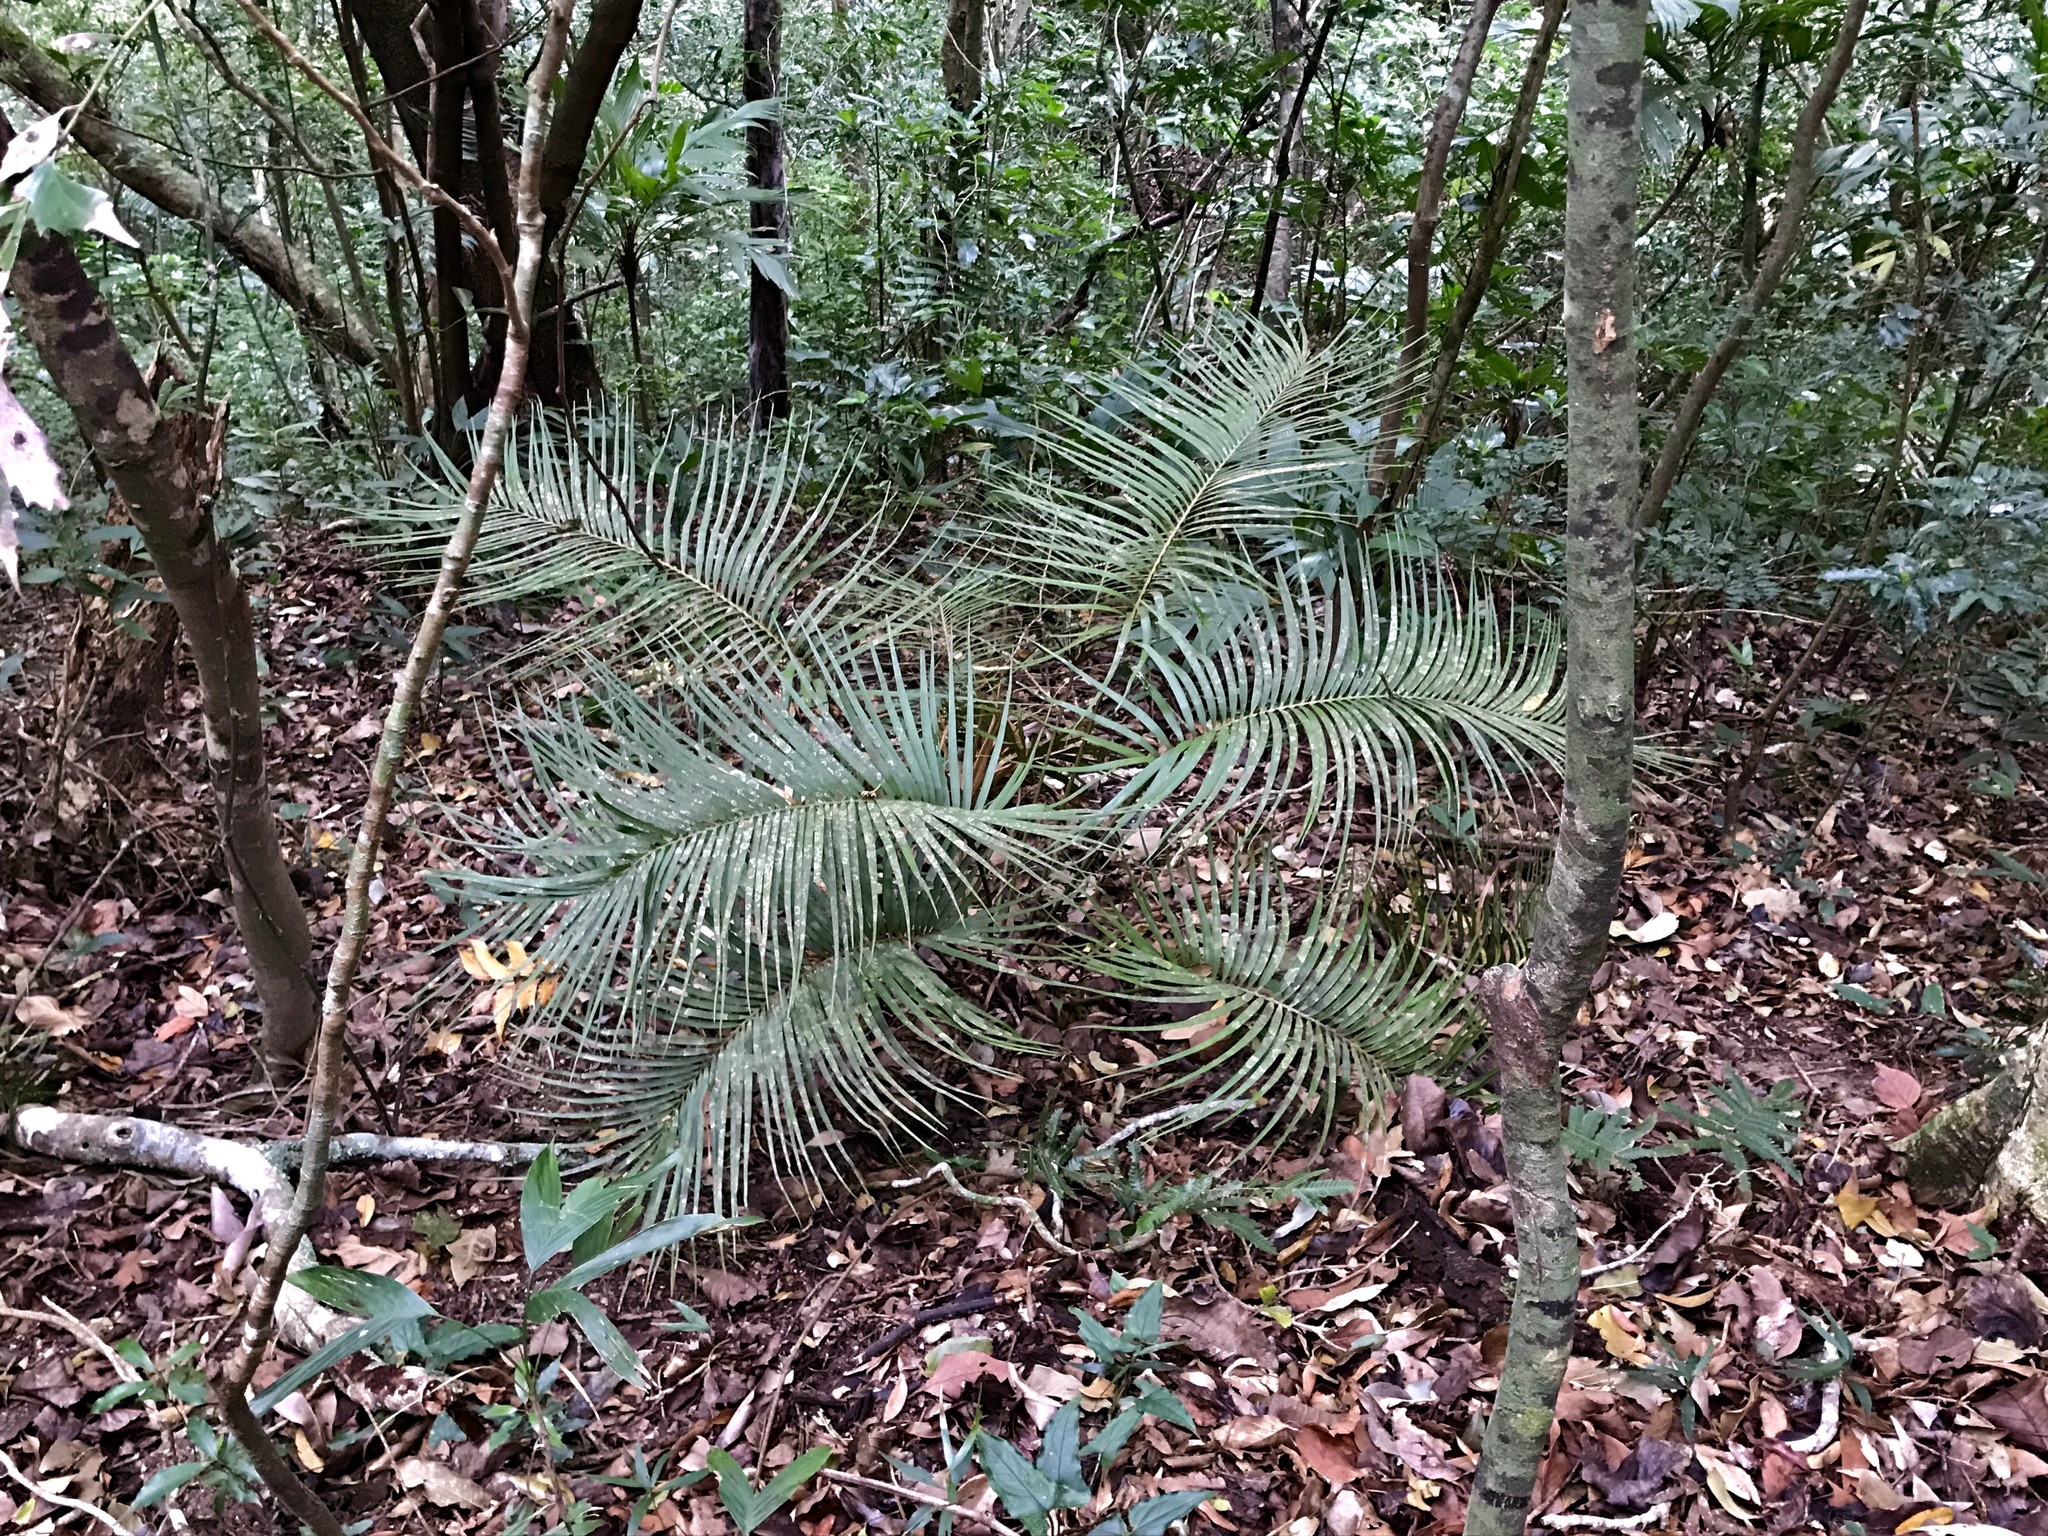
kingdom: Plantae
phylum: Tracheophyta
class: Cycadopsida
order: Cycadales
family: Zamiaceae
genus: Ceratozamia
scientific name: Ceratozamia matudae
